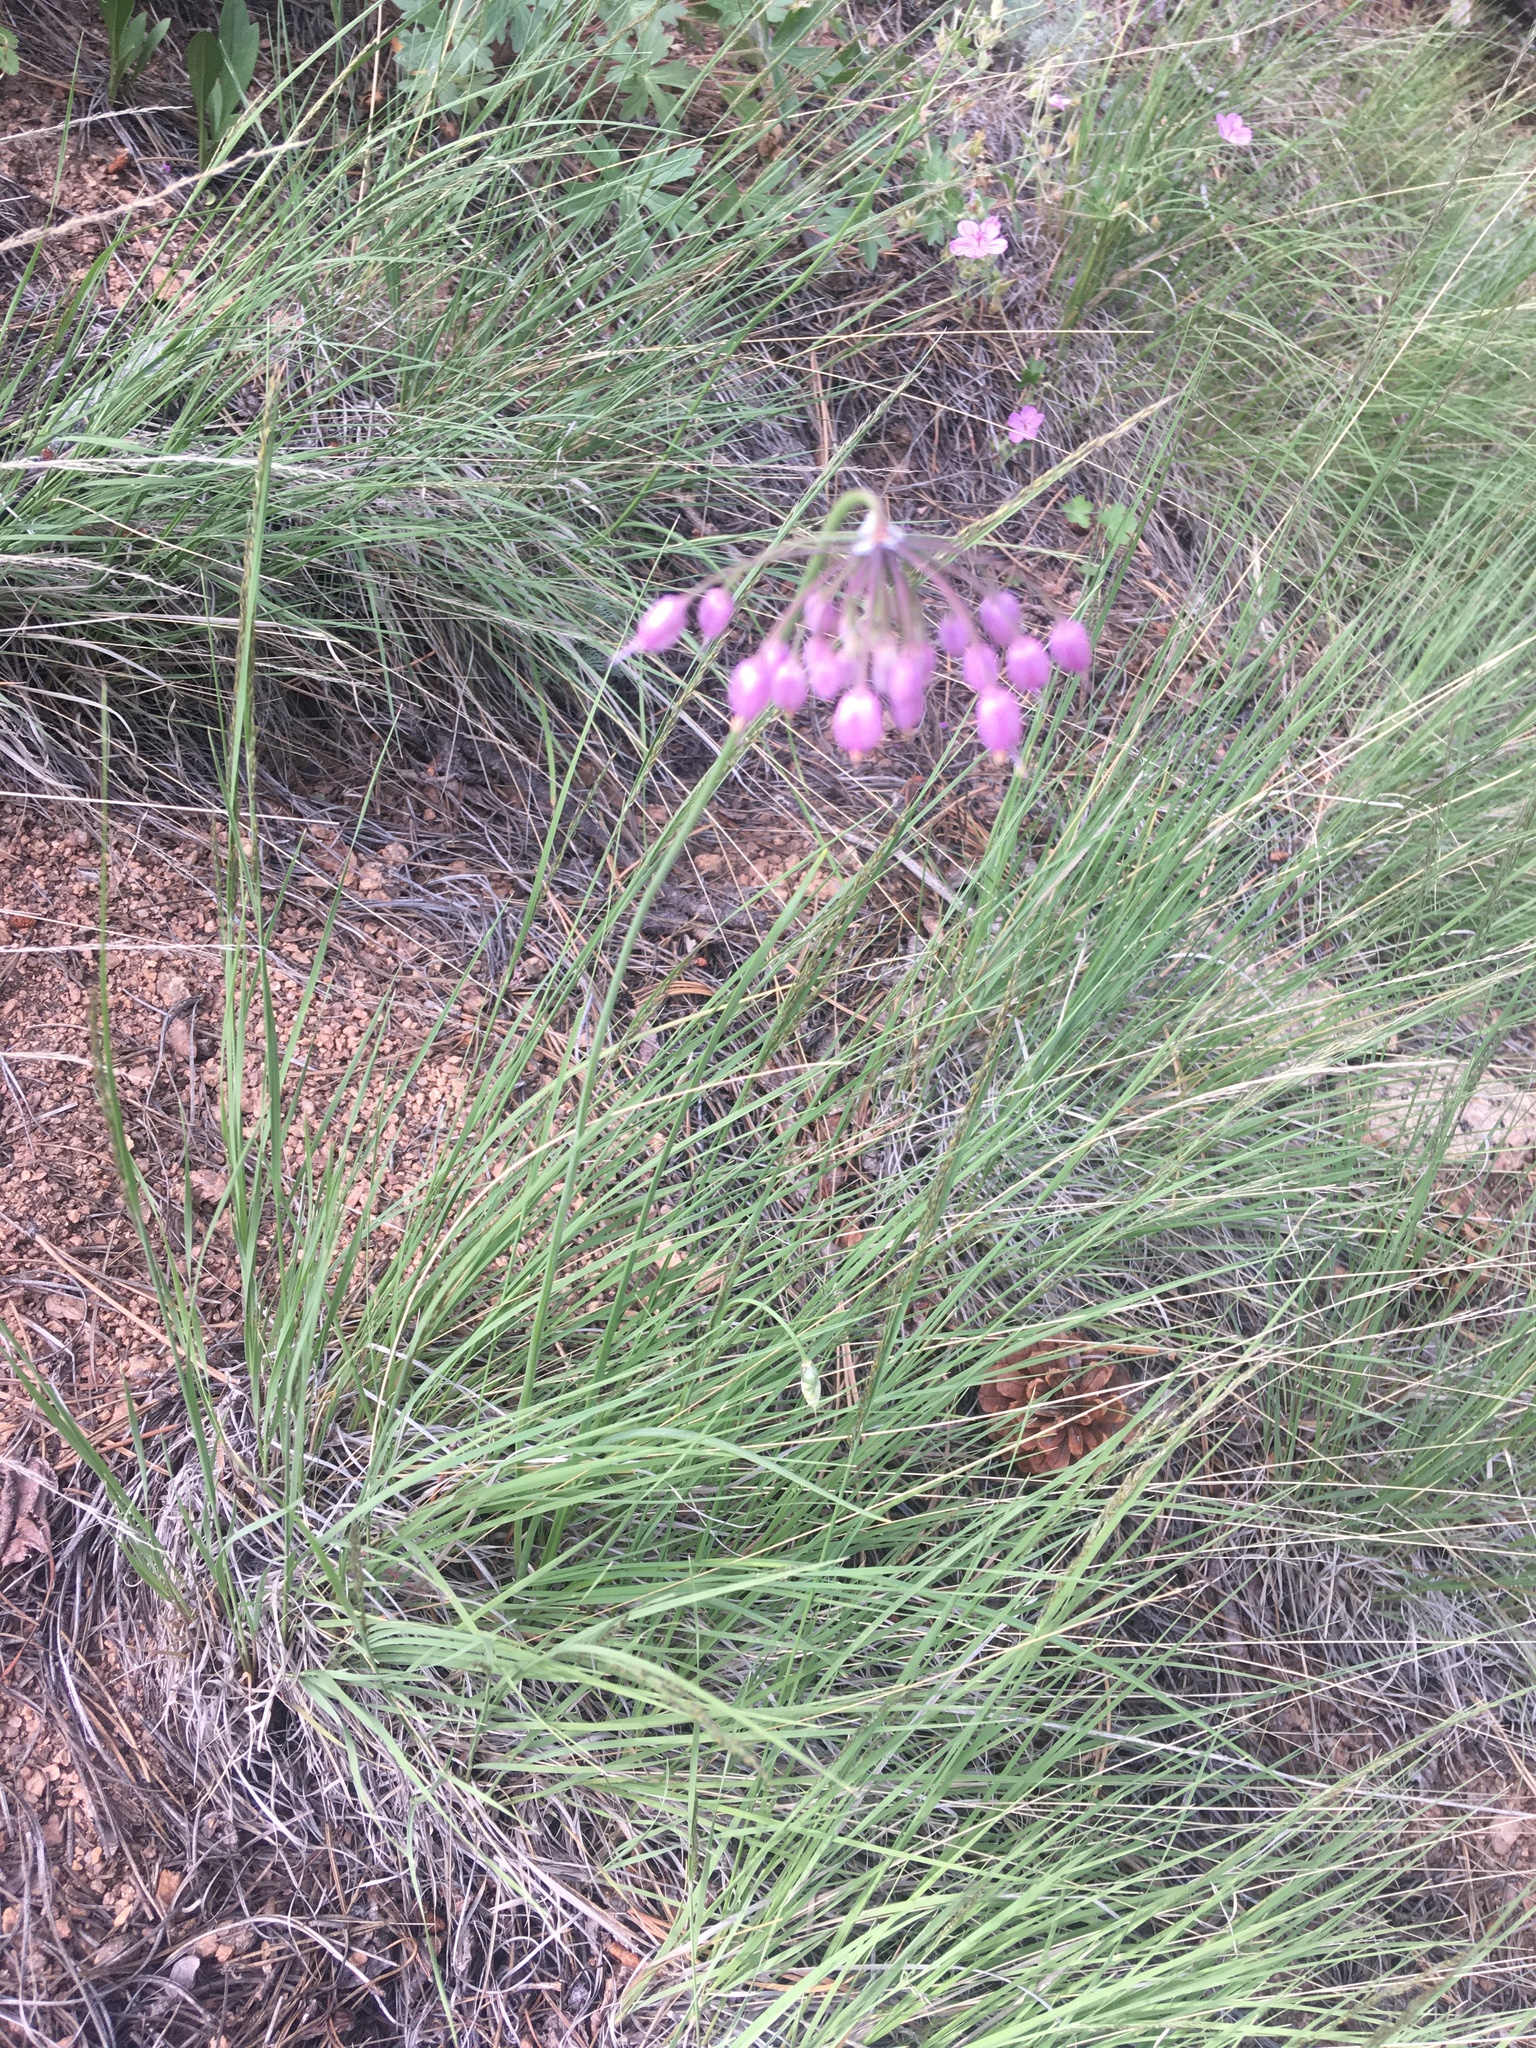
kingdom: Plantae
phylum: Tracheophyta
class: Liliopsida
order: Asparagales
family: Amaryllidaceae
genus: Allium
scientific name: Allium cernuum
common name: Nodding onion
